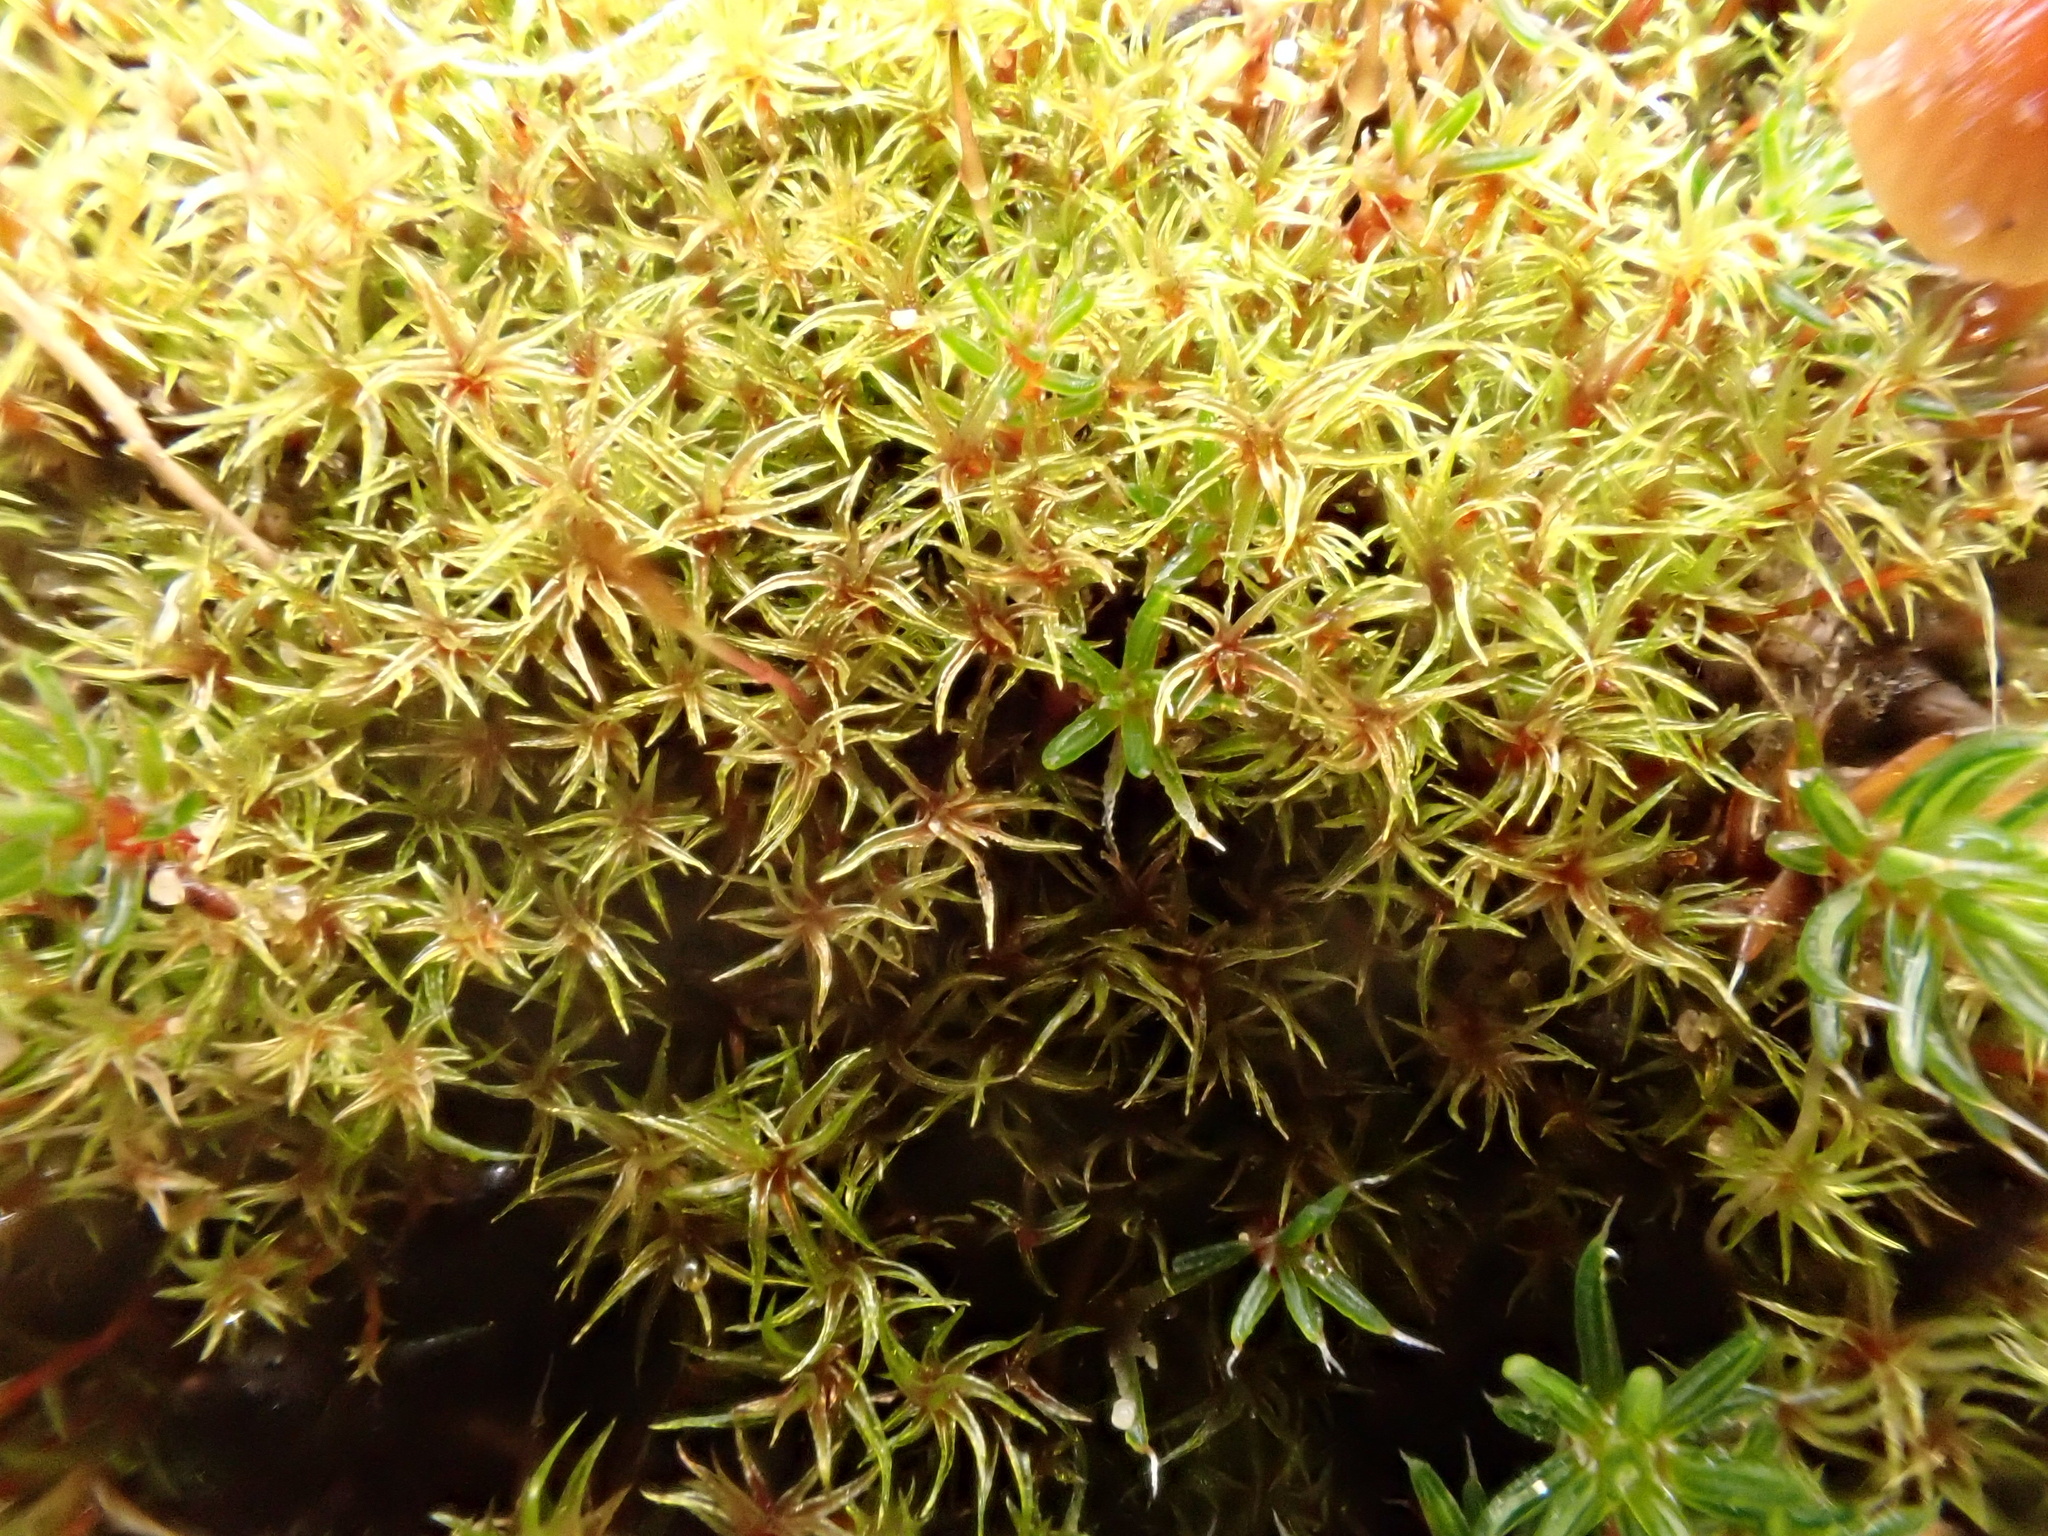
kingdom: Plantae
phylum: Bryophyta
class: Bryopsida
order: Dicranales
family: Ditrichaceae
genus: Ceratodon
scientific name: Ceratodon purpureus
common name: Redshank
